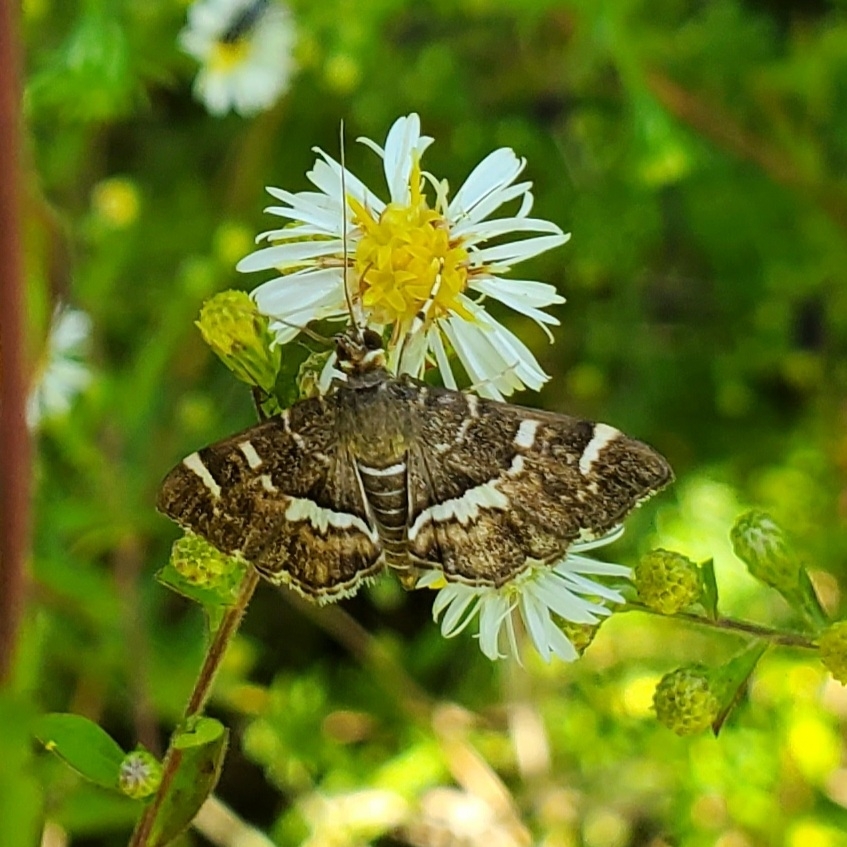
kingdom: Animalia
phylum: Arthropoda
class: Insecta
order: Lepidoptera
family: Crambidae
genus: Hymenia
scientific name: Hymenia perspectalis
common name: Spotted beet webworm
